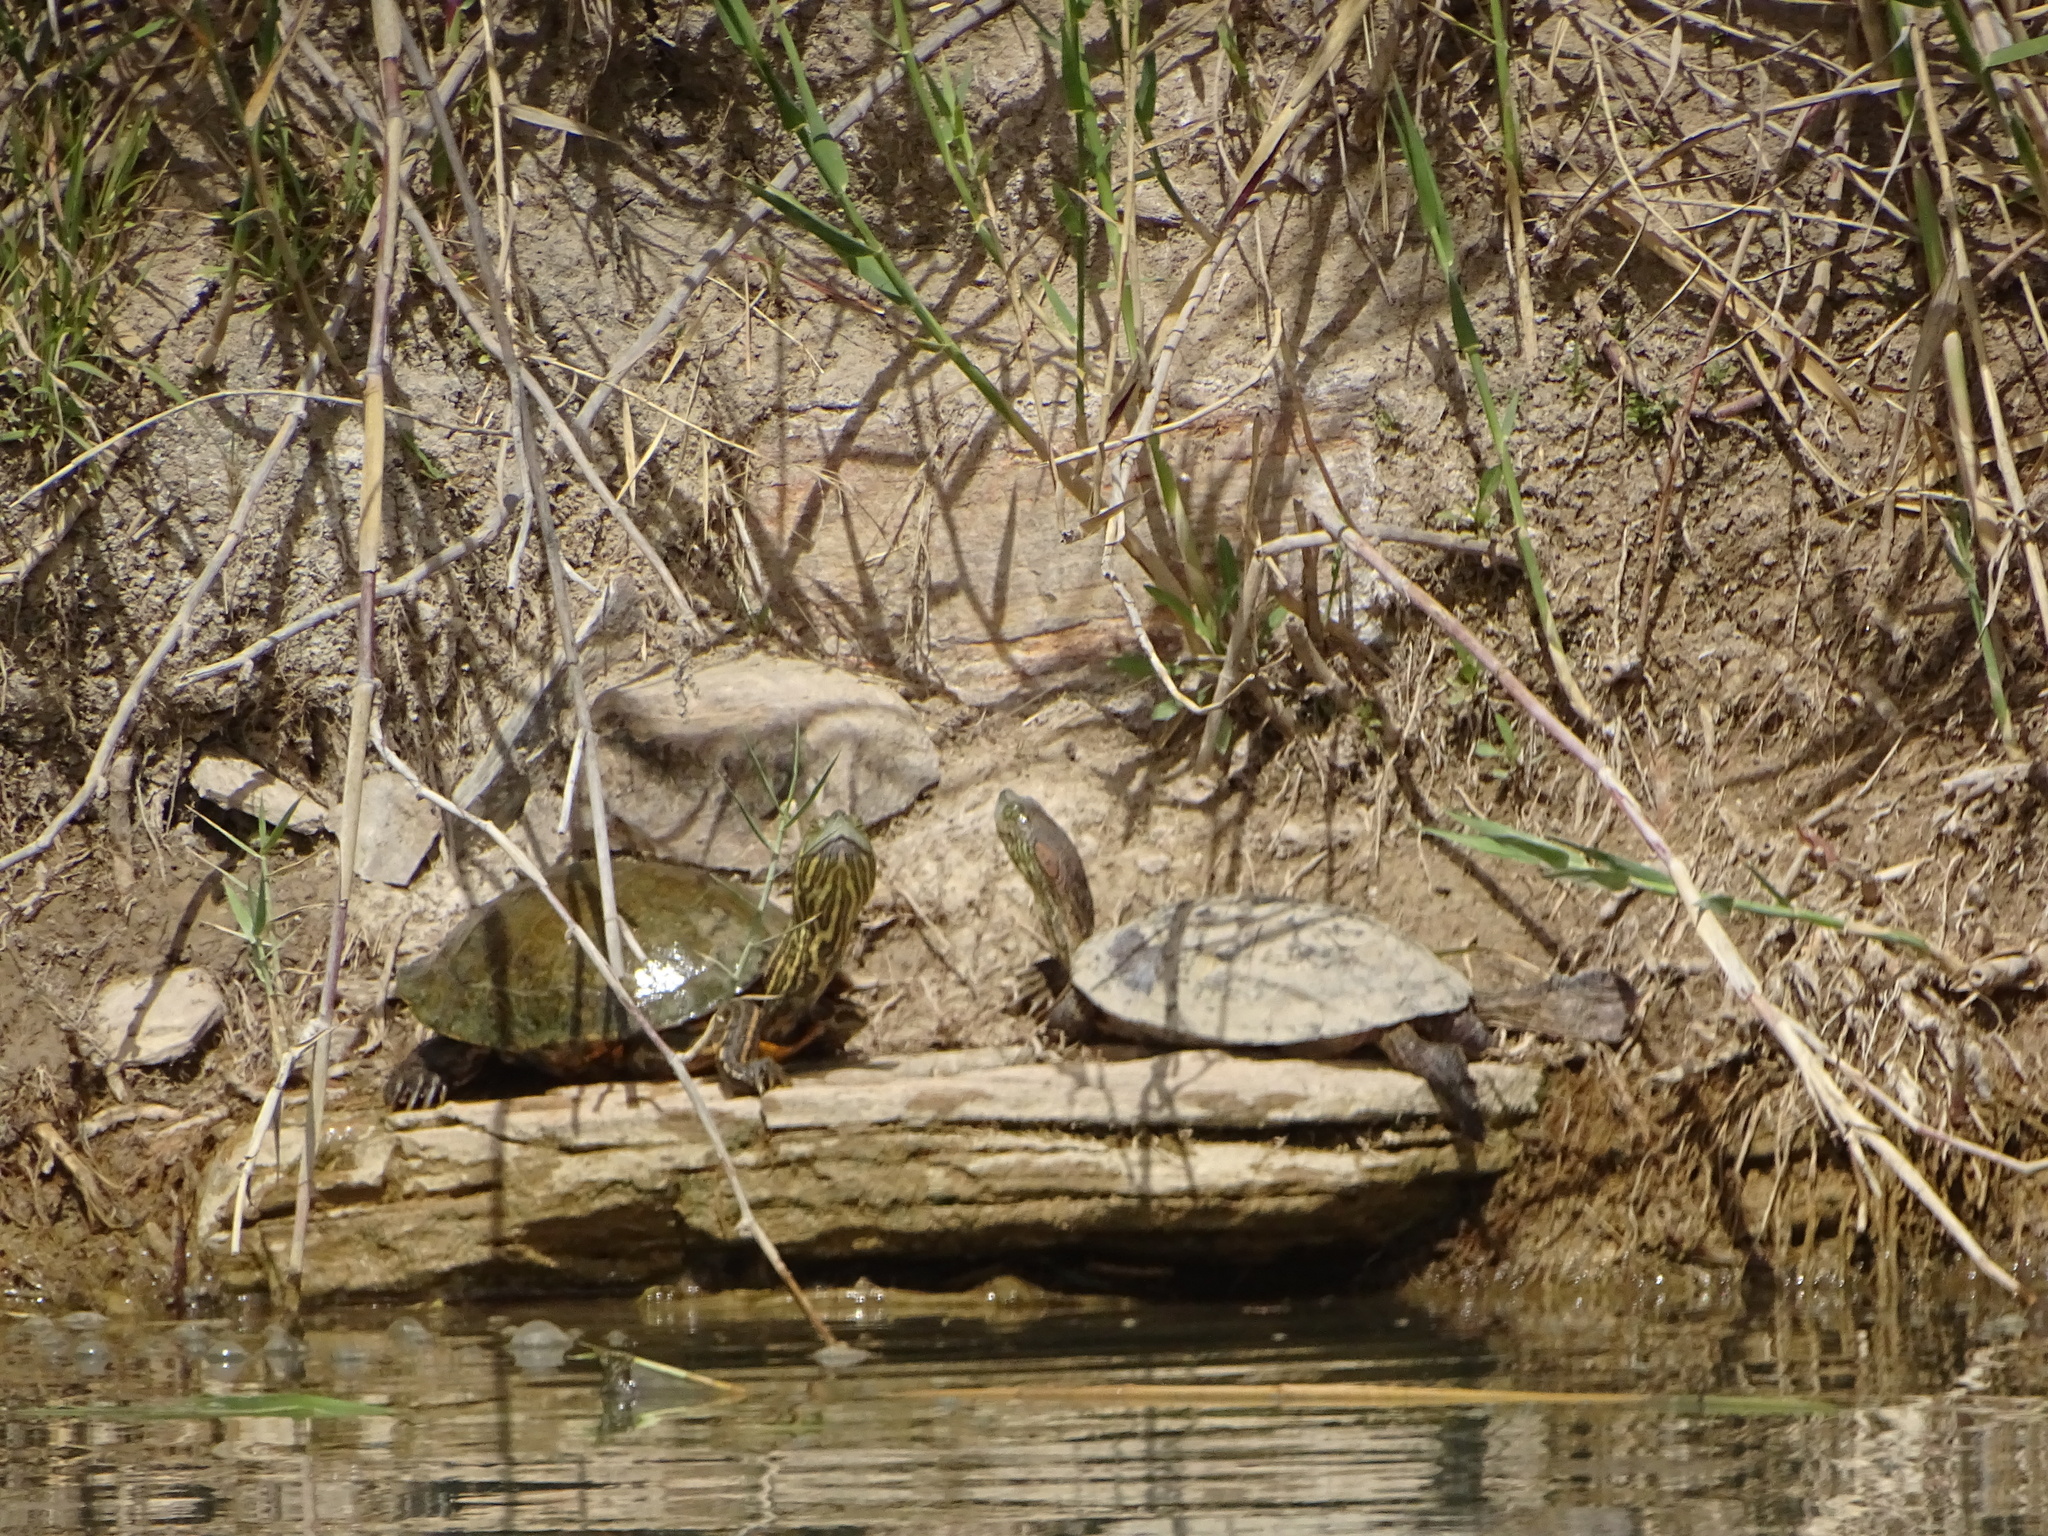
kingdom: Animalia
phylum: Chordata
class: Testudines
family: Emydidae
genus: Trachemys
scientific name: Trachemys gaigeae
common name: Big bend slider
